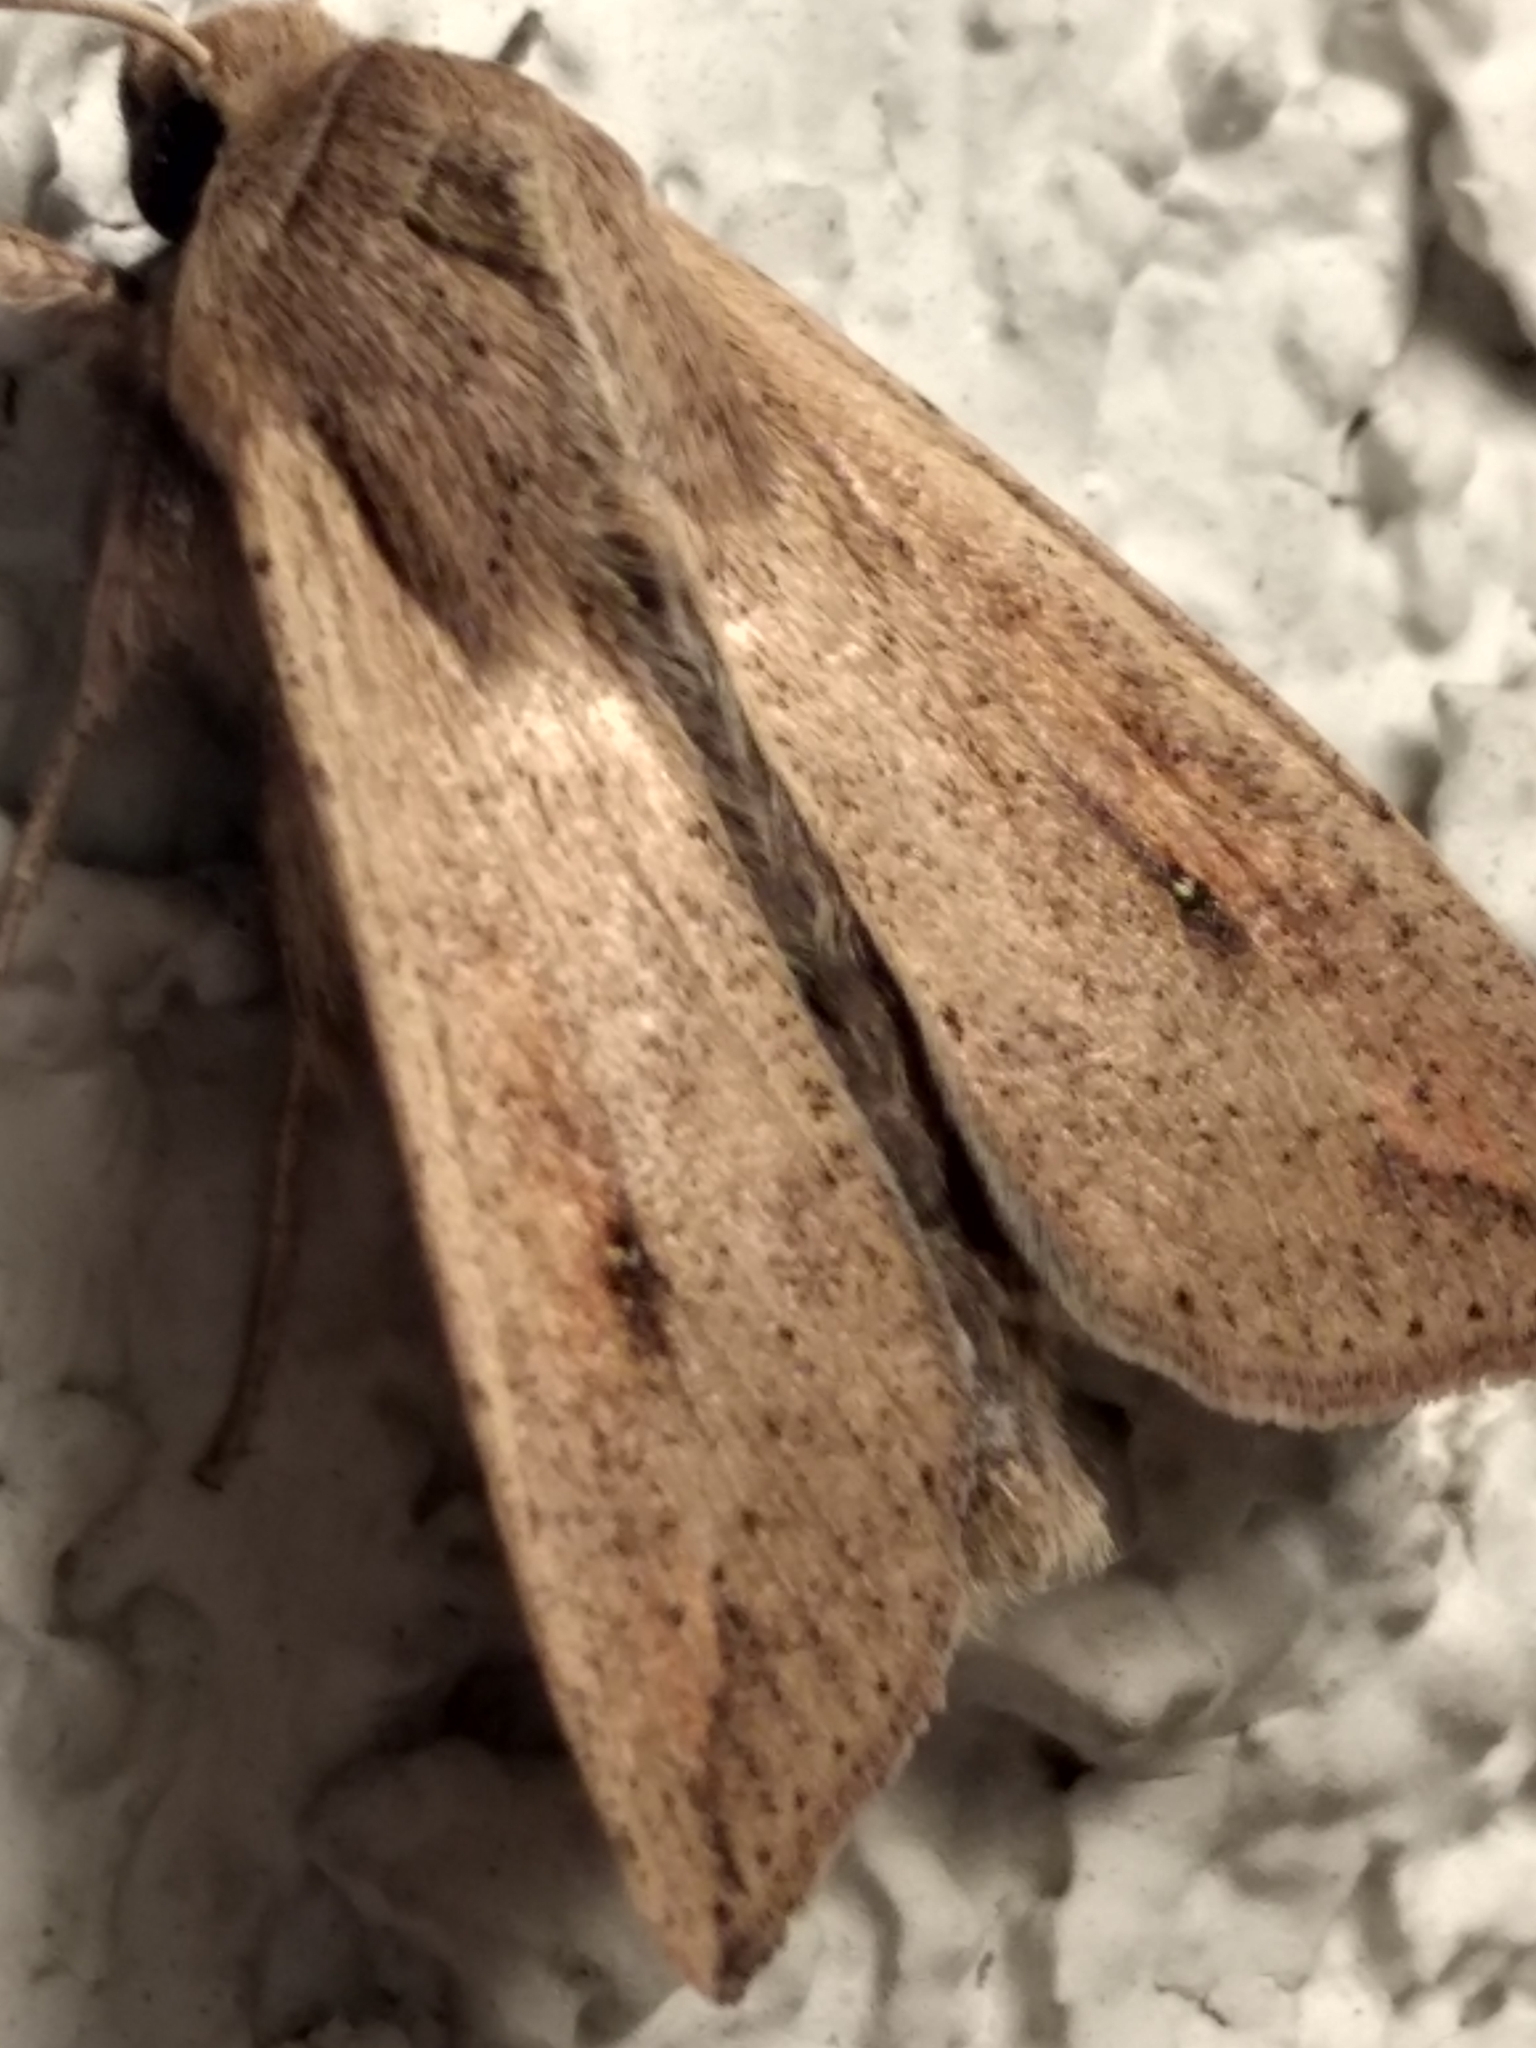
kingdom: Animalia
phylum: Arthropoda
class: Insecta
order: Lepidoptera
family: Noctuidae
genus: Mythimna
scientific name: Mythimna unipuncta
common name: White-speck
